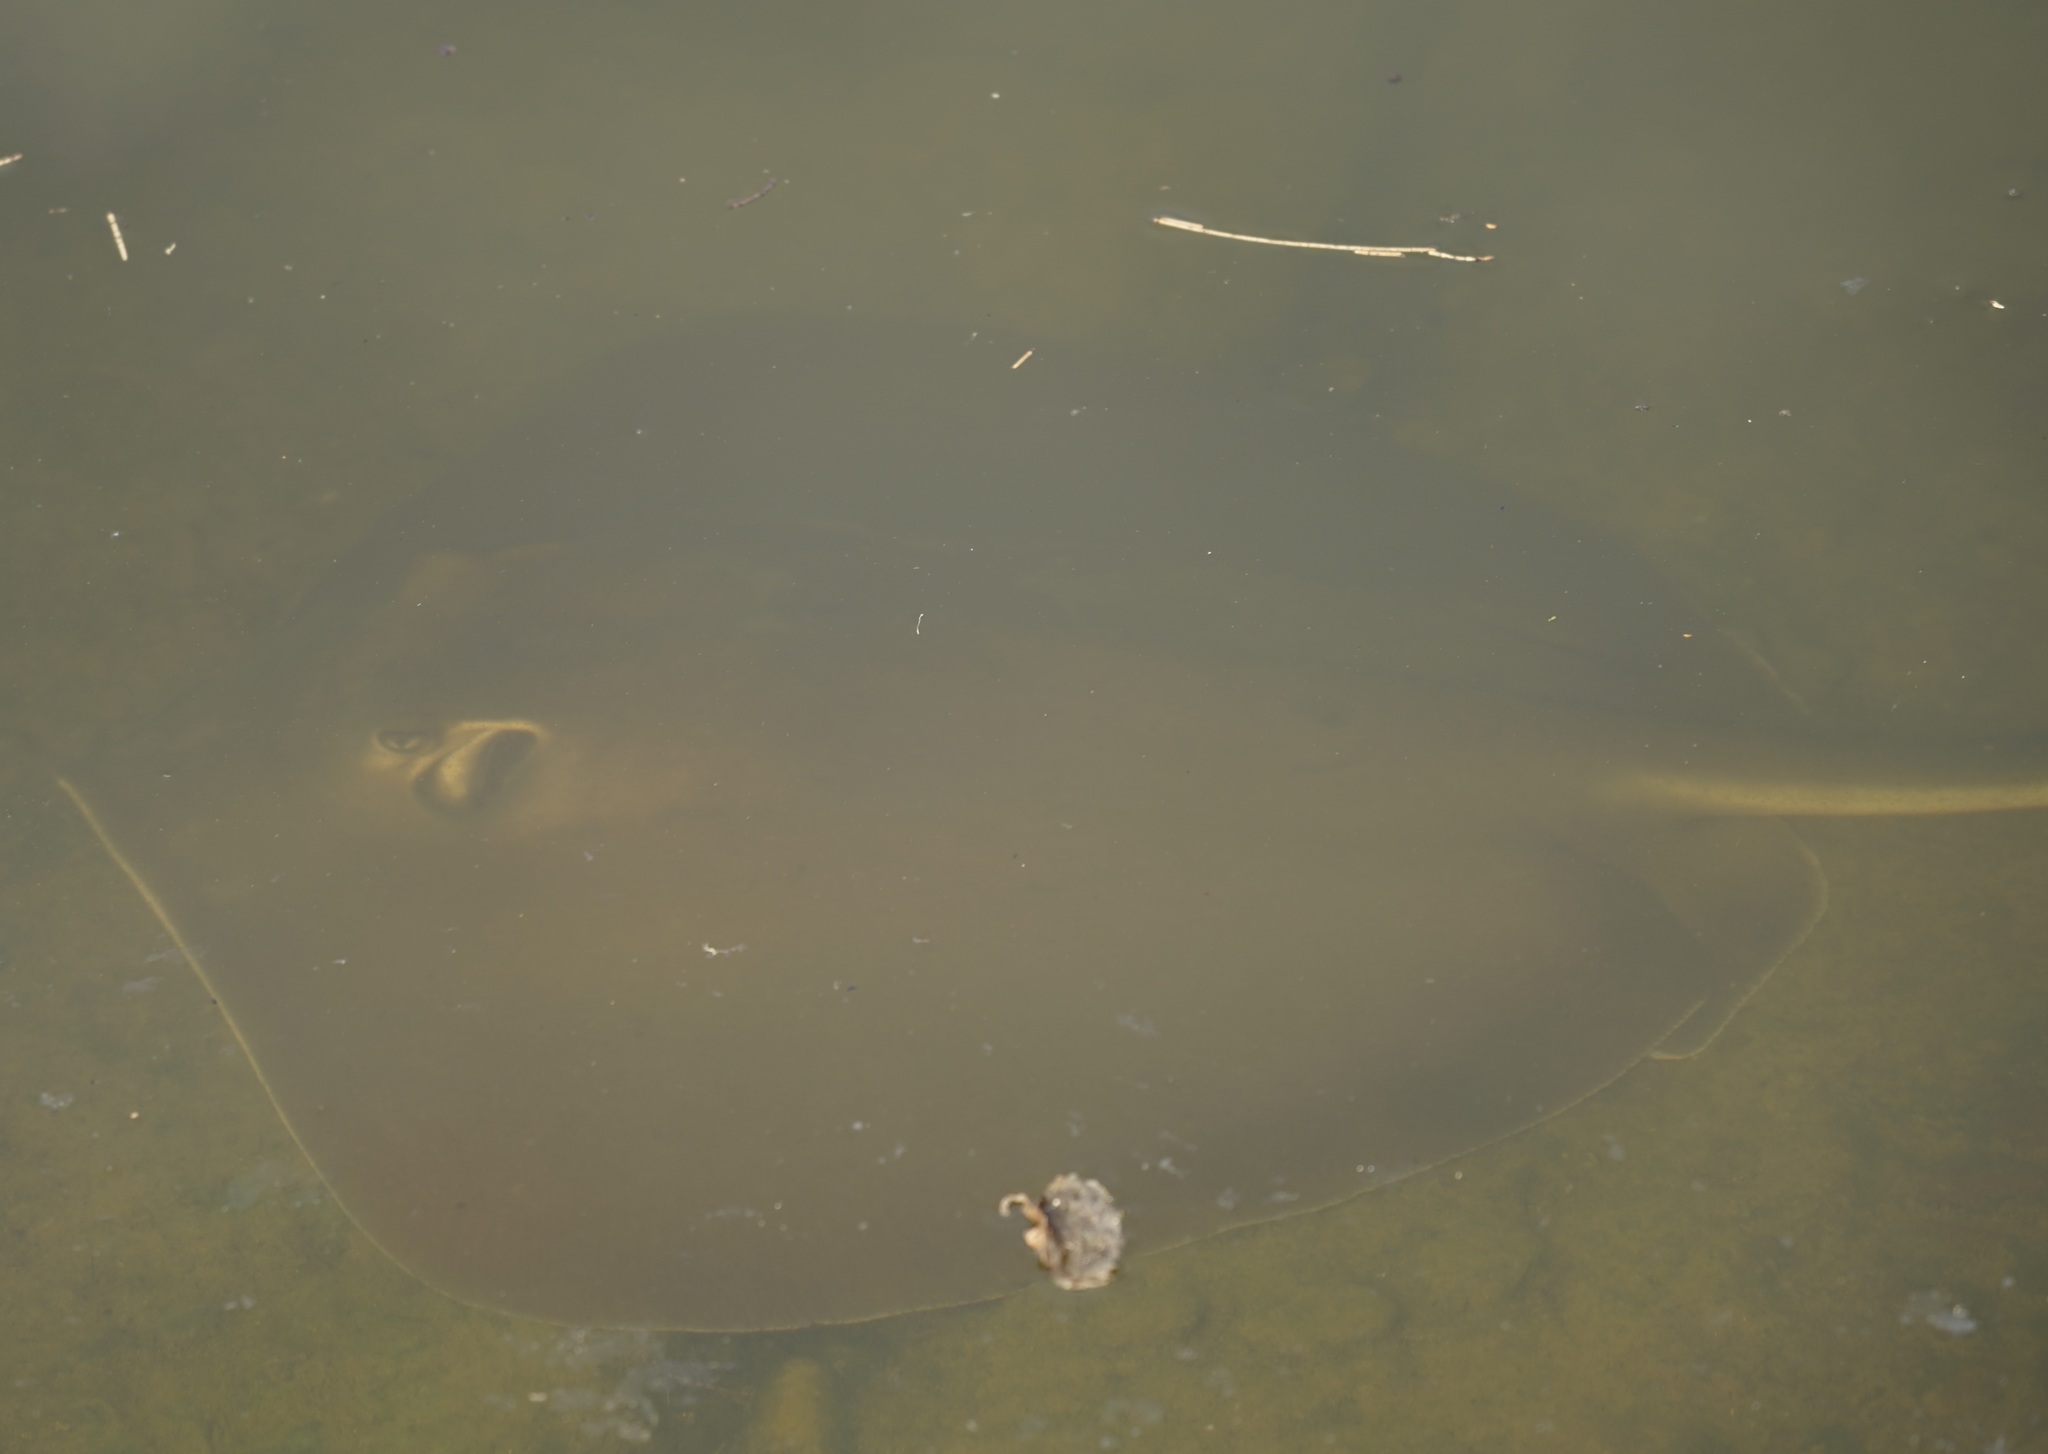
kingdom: Animalia
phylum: Chordata
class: Elasmobranchii
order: Myliobatiformes
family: Dasyatidae
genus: Hemitrygon
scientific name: Hemitrygon fluviorum
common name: Estuary stingray
